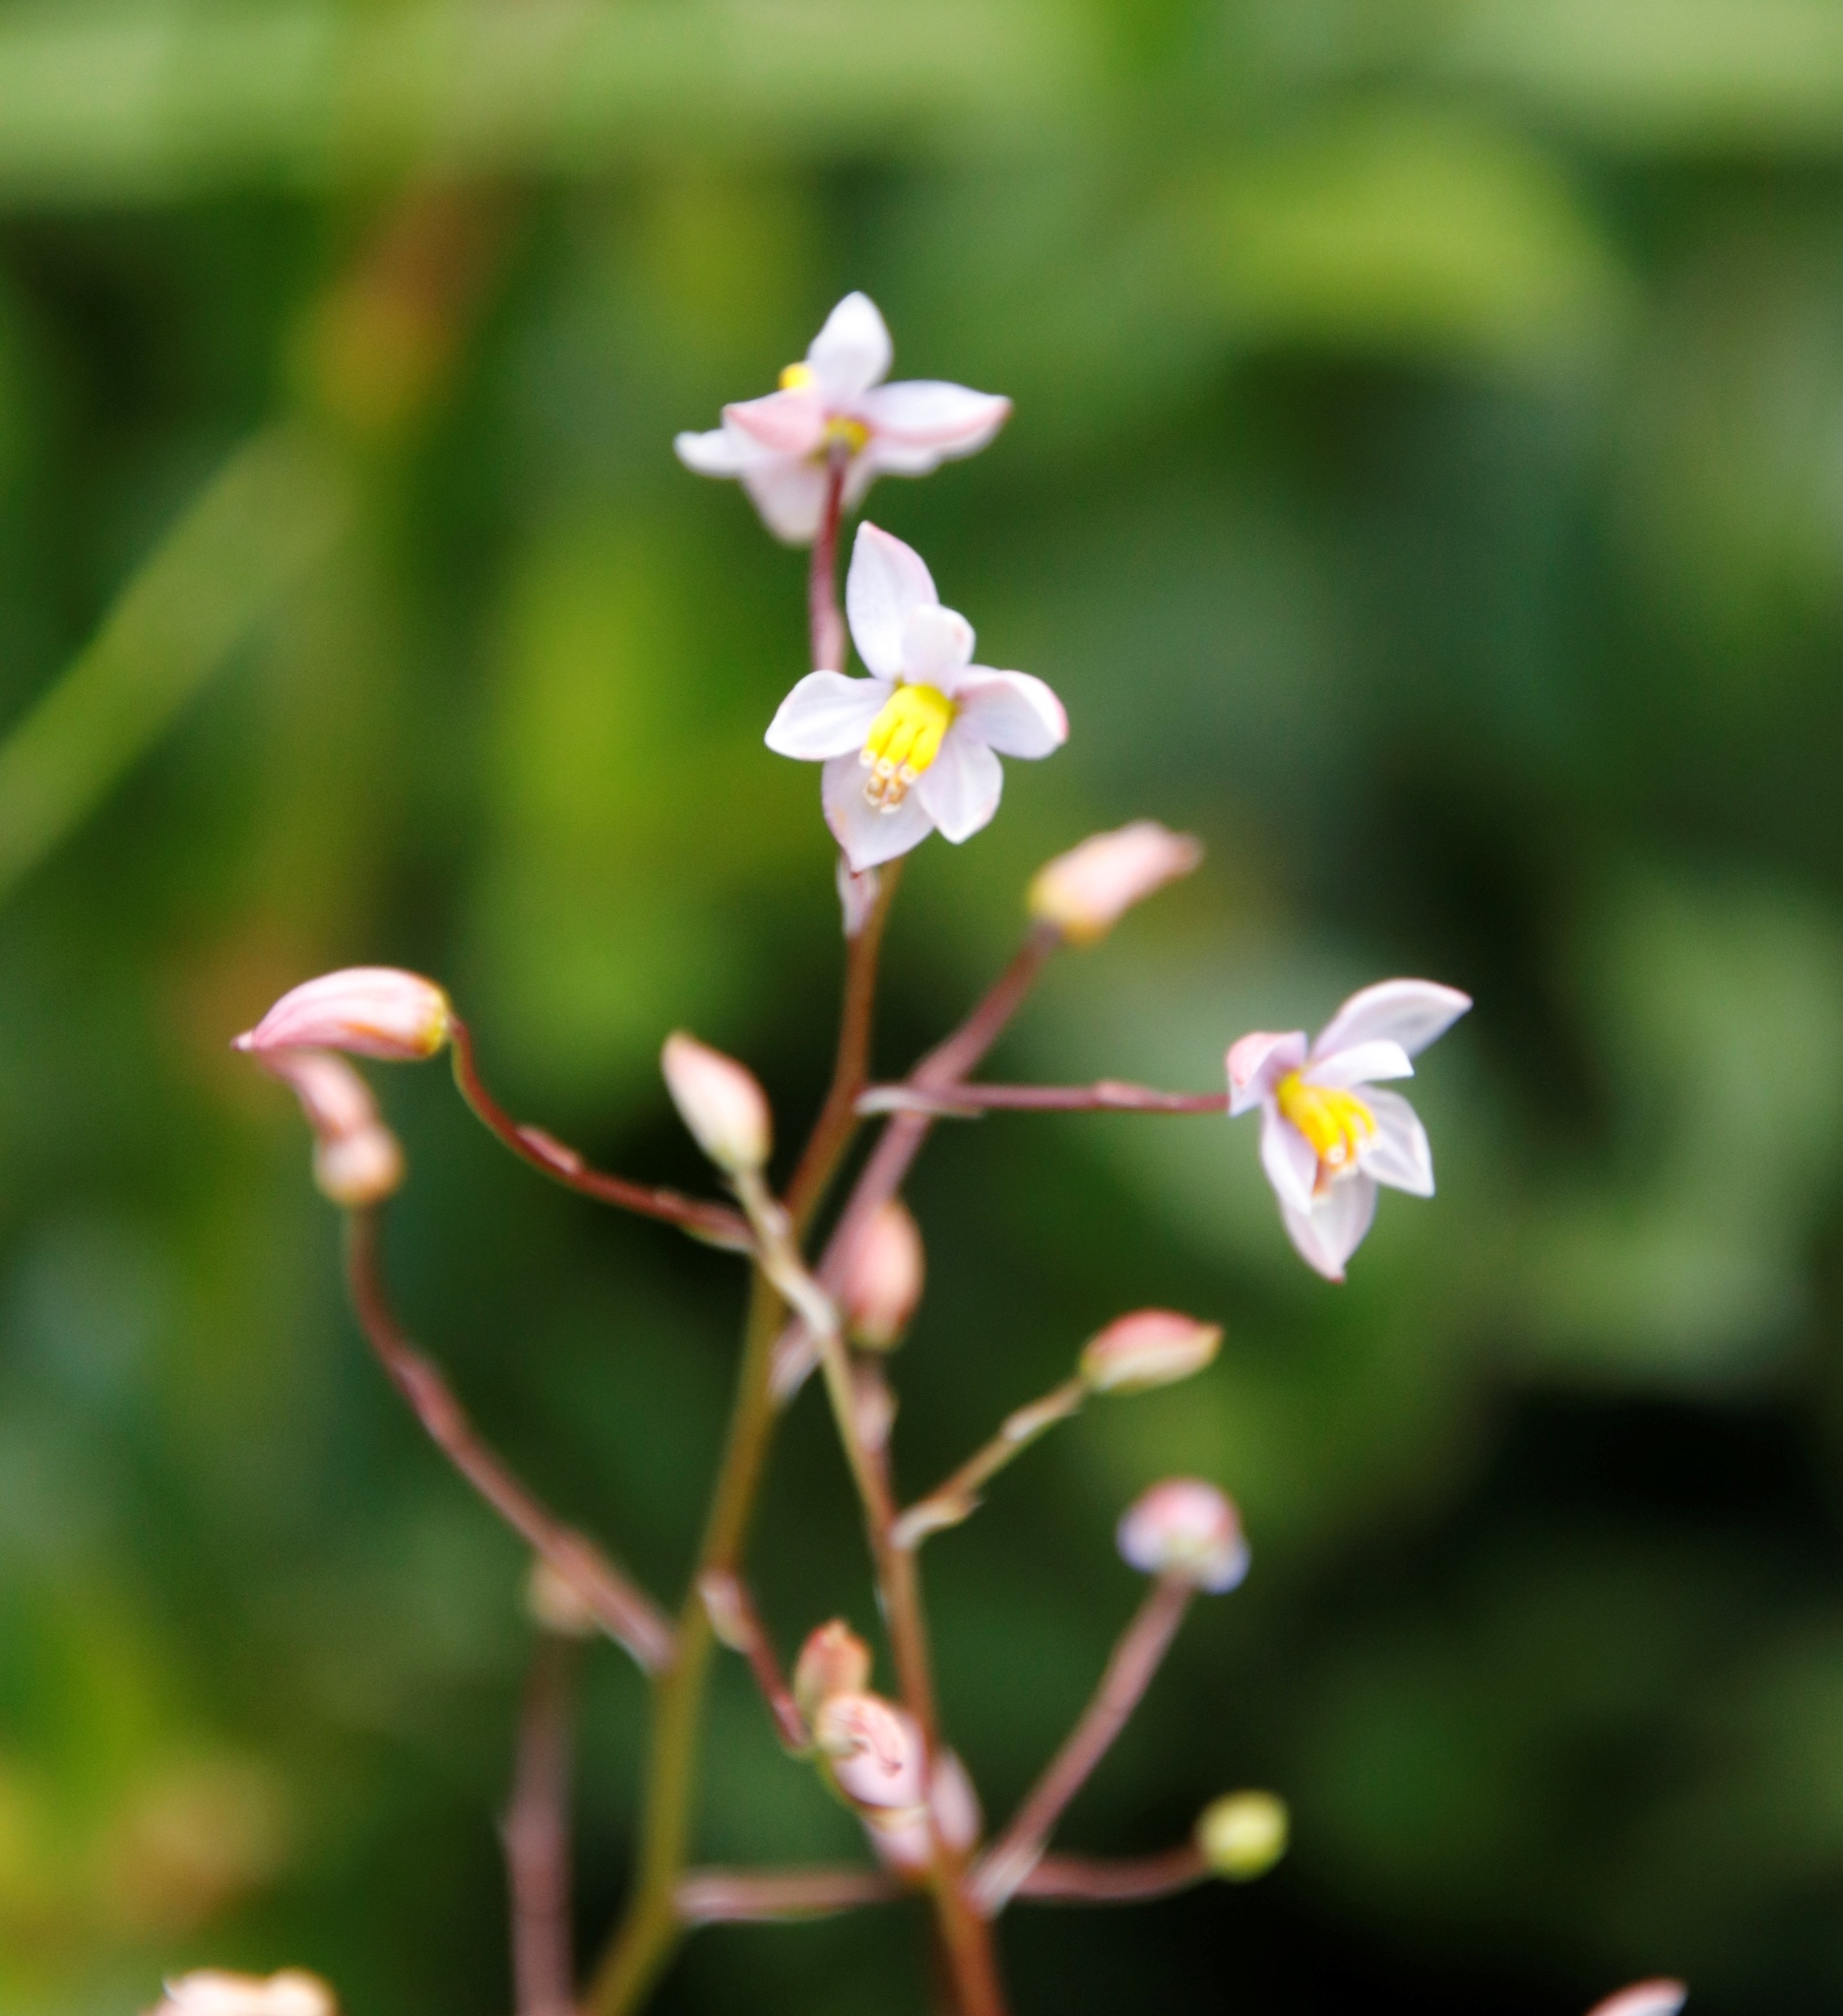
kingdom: Plantae
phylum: Tracheophyta
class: Liliopsida
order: Asparagales
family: Tecophilaeaceae
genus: Cyanella
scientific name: Cyanella hyacinthoides
